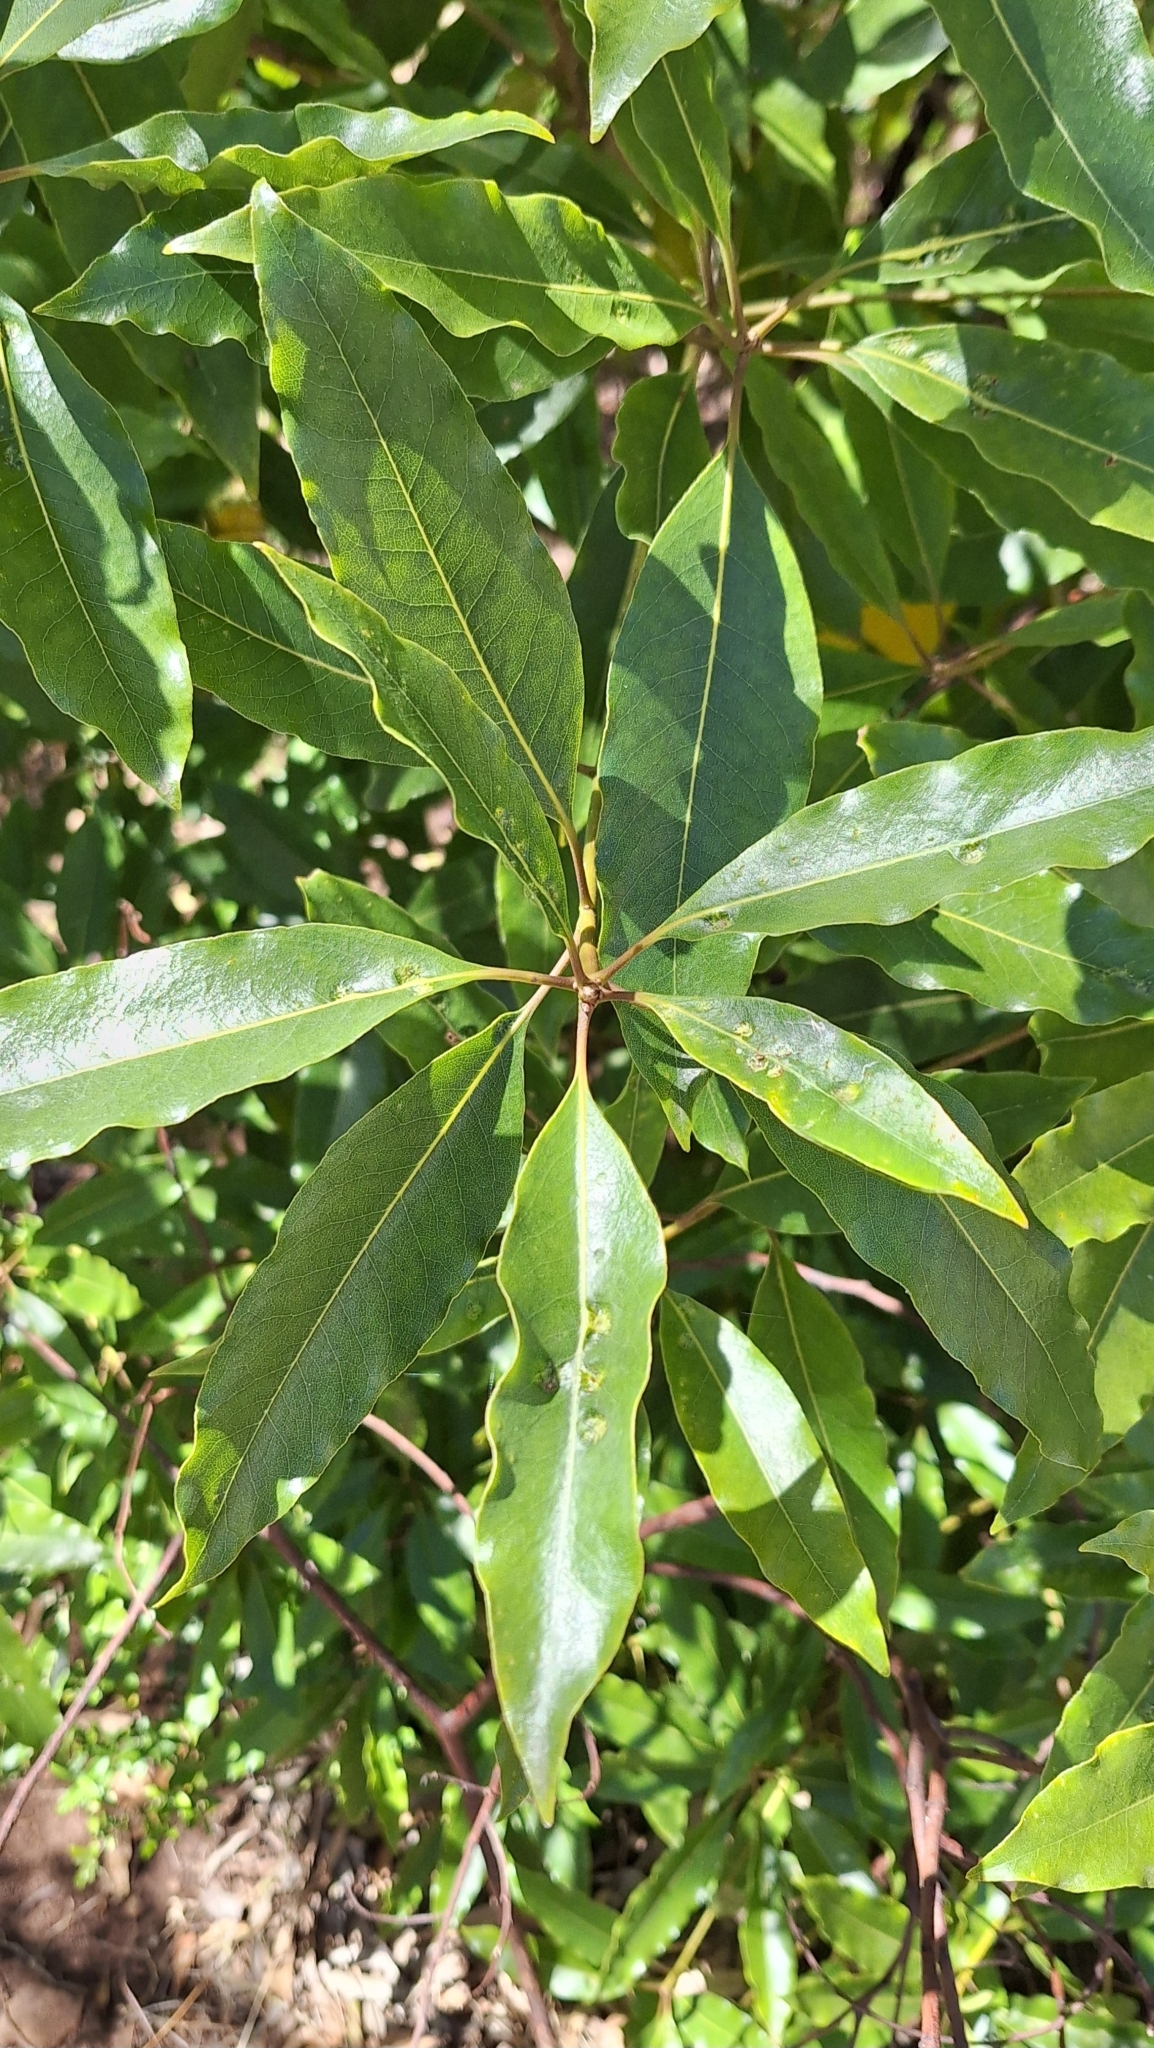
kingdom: Animalia
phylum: Arthropoda
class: Insecta
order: Diptera
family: Agromyzidae
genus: Phytoliriomyza
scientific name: Phytoliriomyza pittosporophylli
